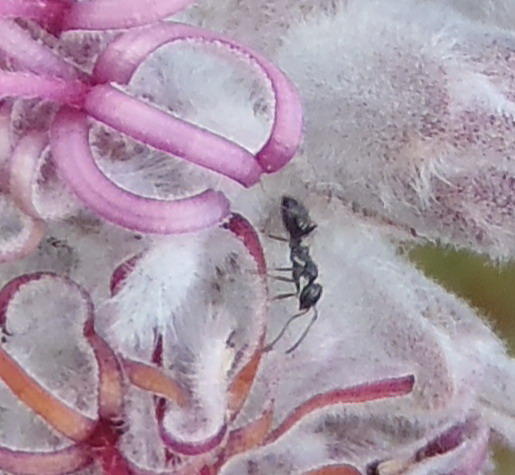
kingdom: Animalia
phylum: Arthropoda
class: Insecta
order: Hymenoptera
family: Formicidae
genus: Lepisiota
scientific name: Lepisiota capensis
